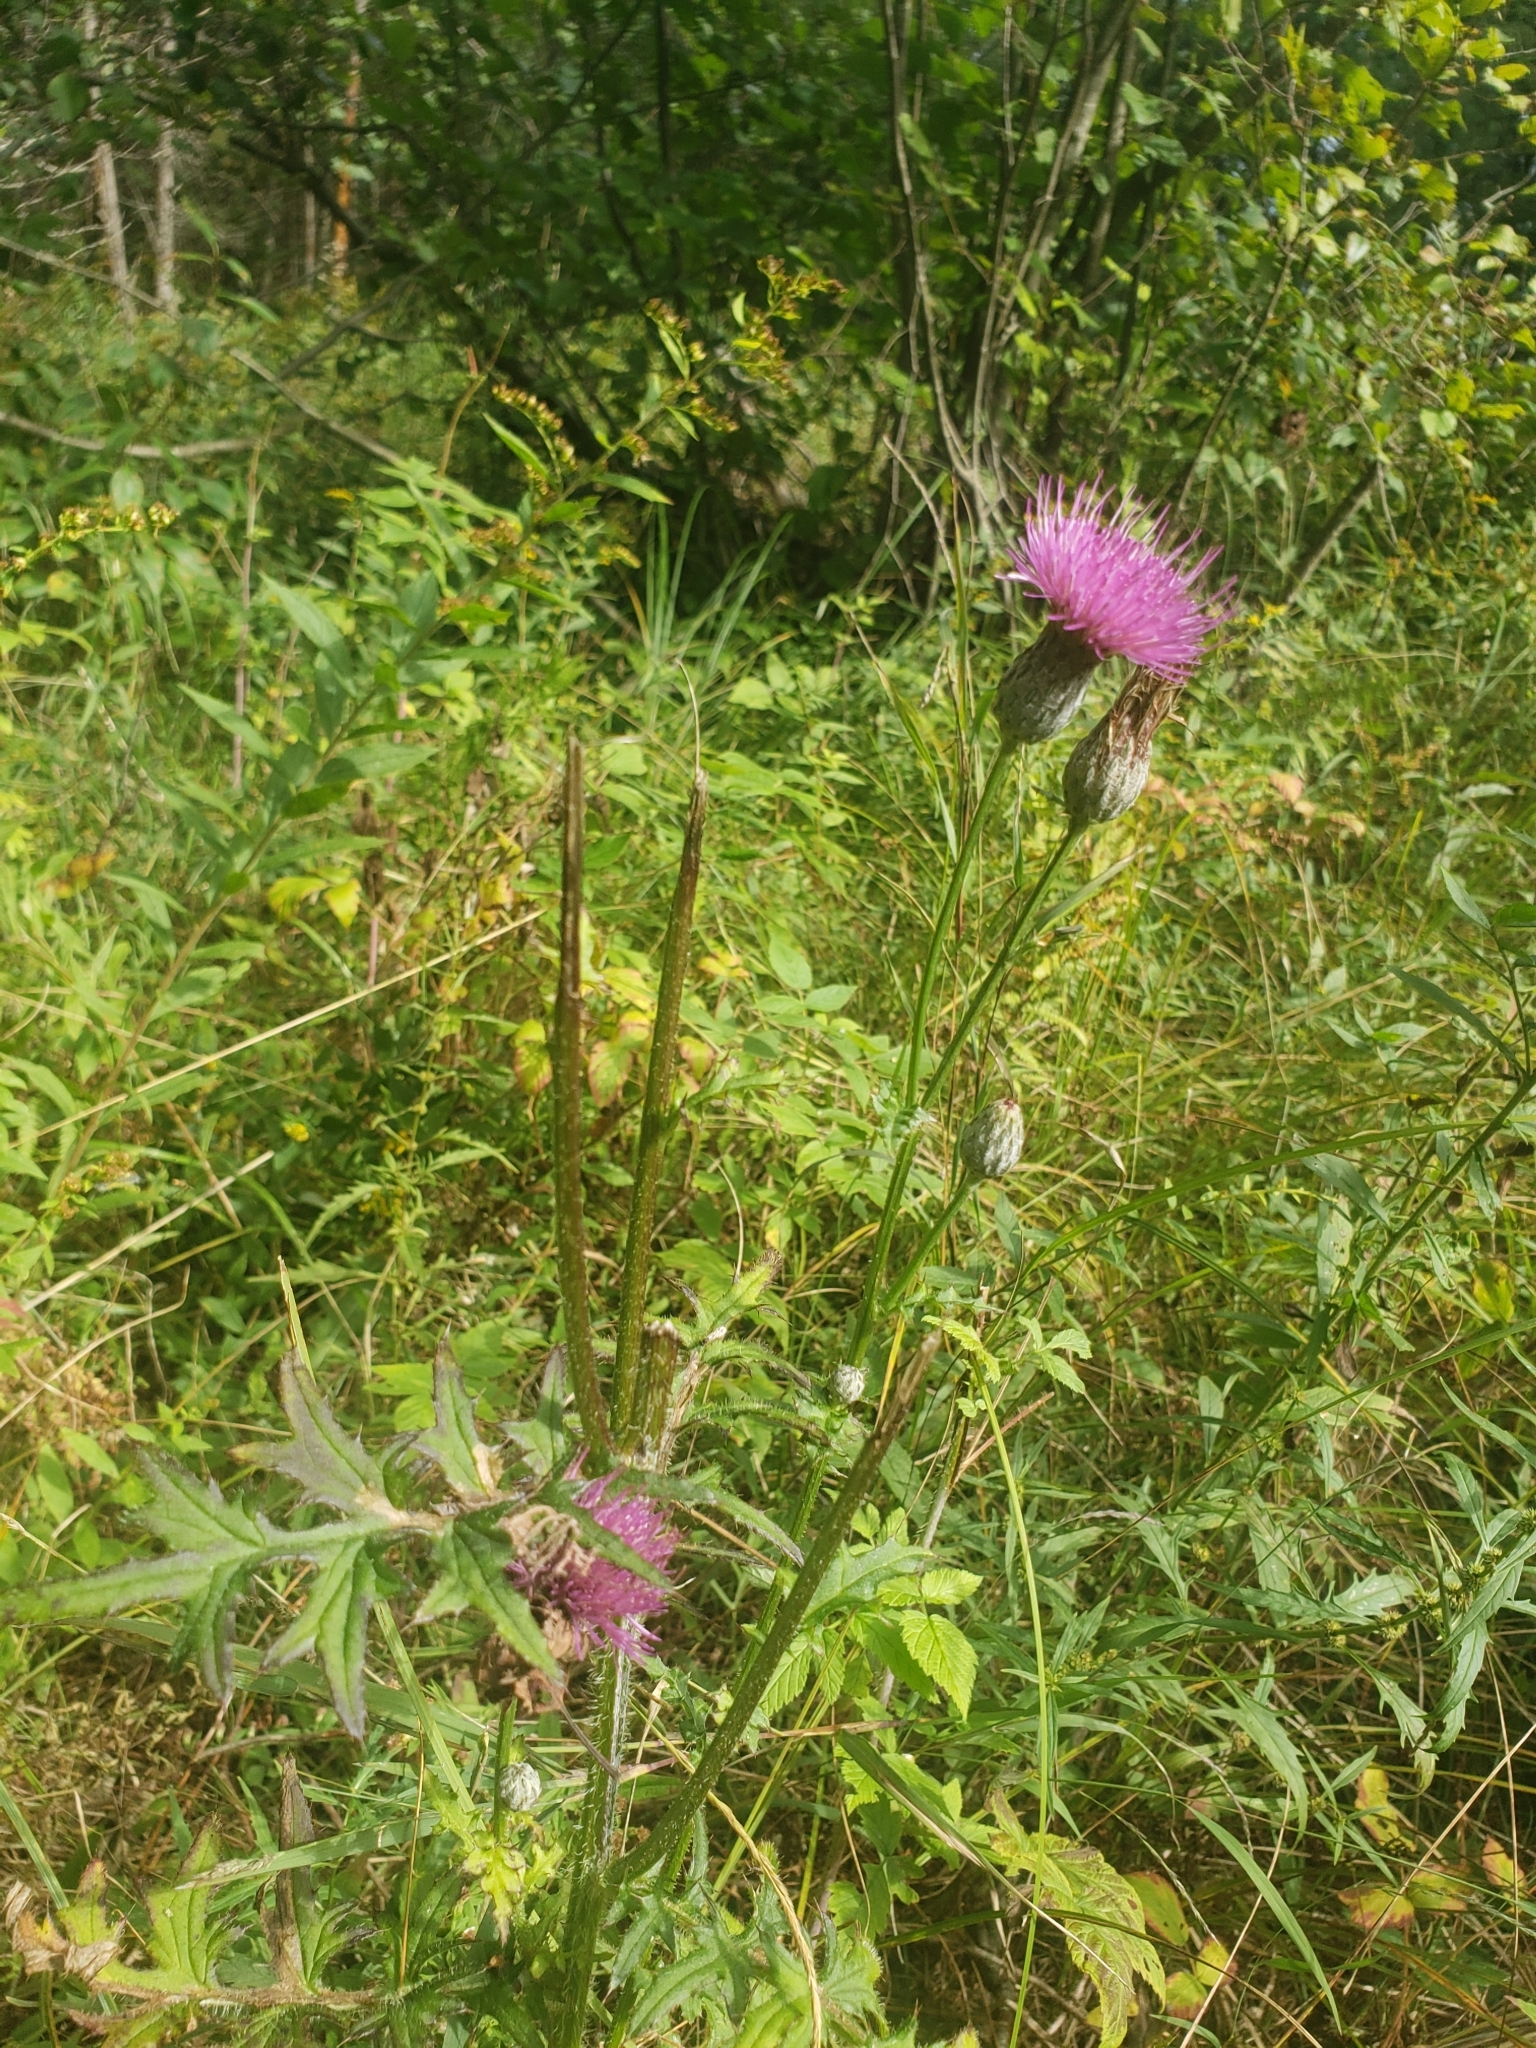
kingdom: Plantae
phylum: Tracheophyta
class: Magnoliopsida
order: Asterales
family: Asteraceae
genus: Cirsium
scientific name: Cirsium muticum
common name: Dunce-nettle
